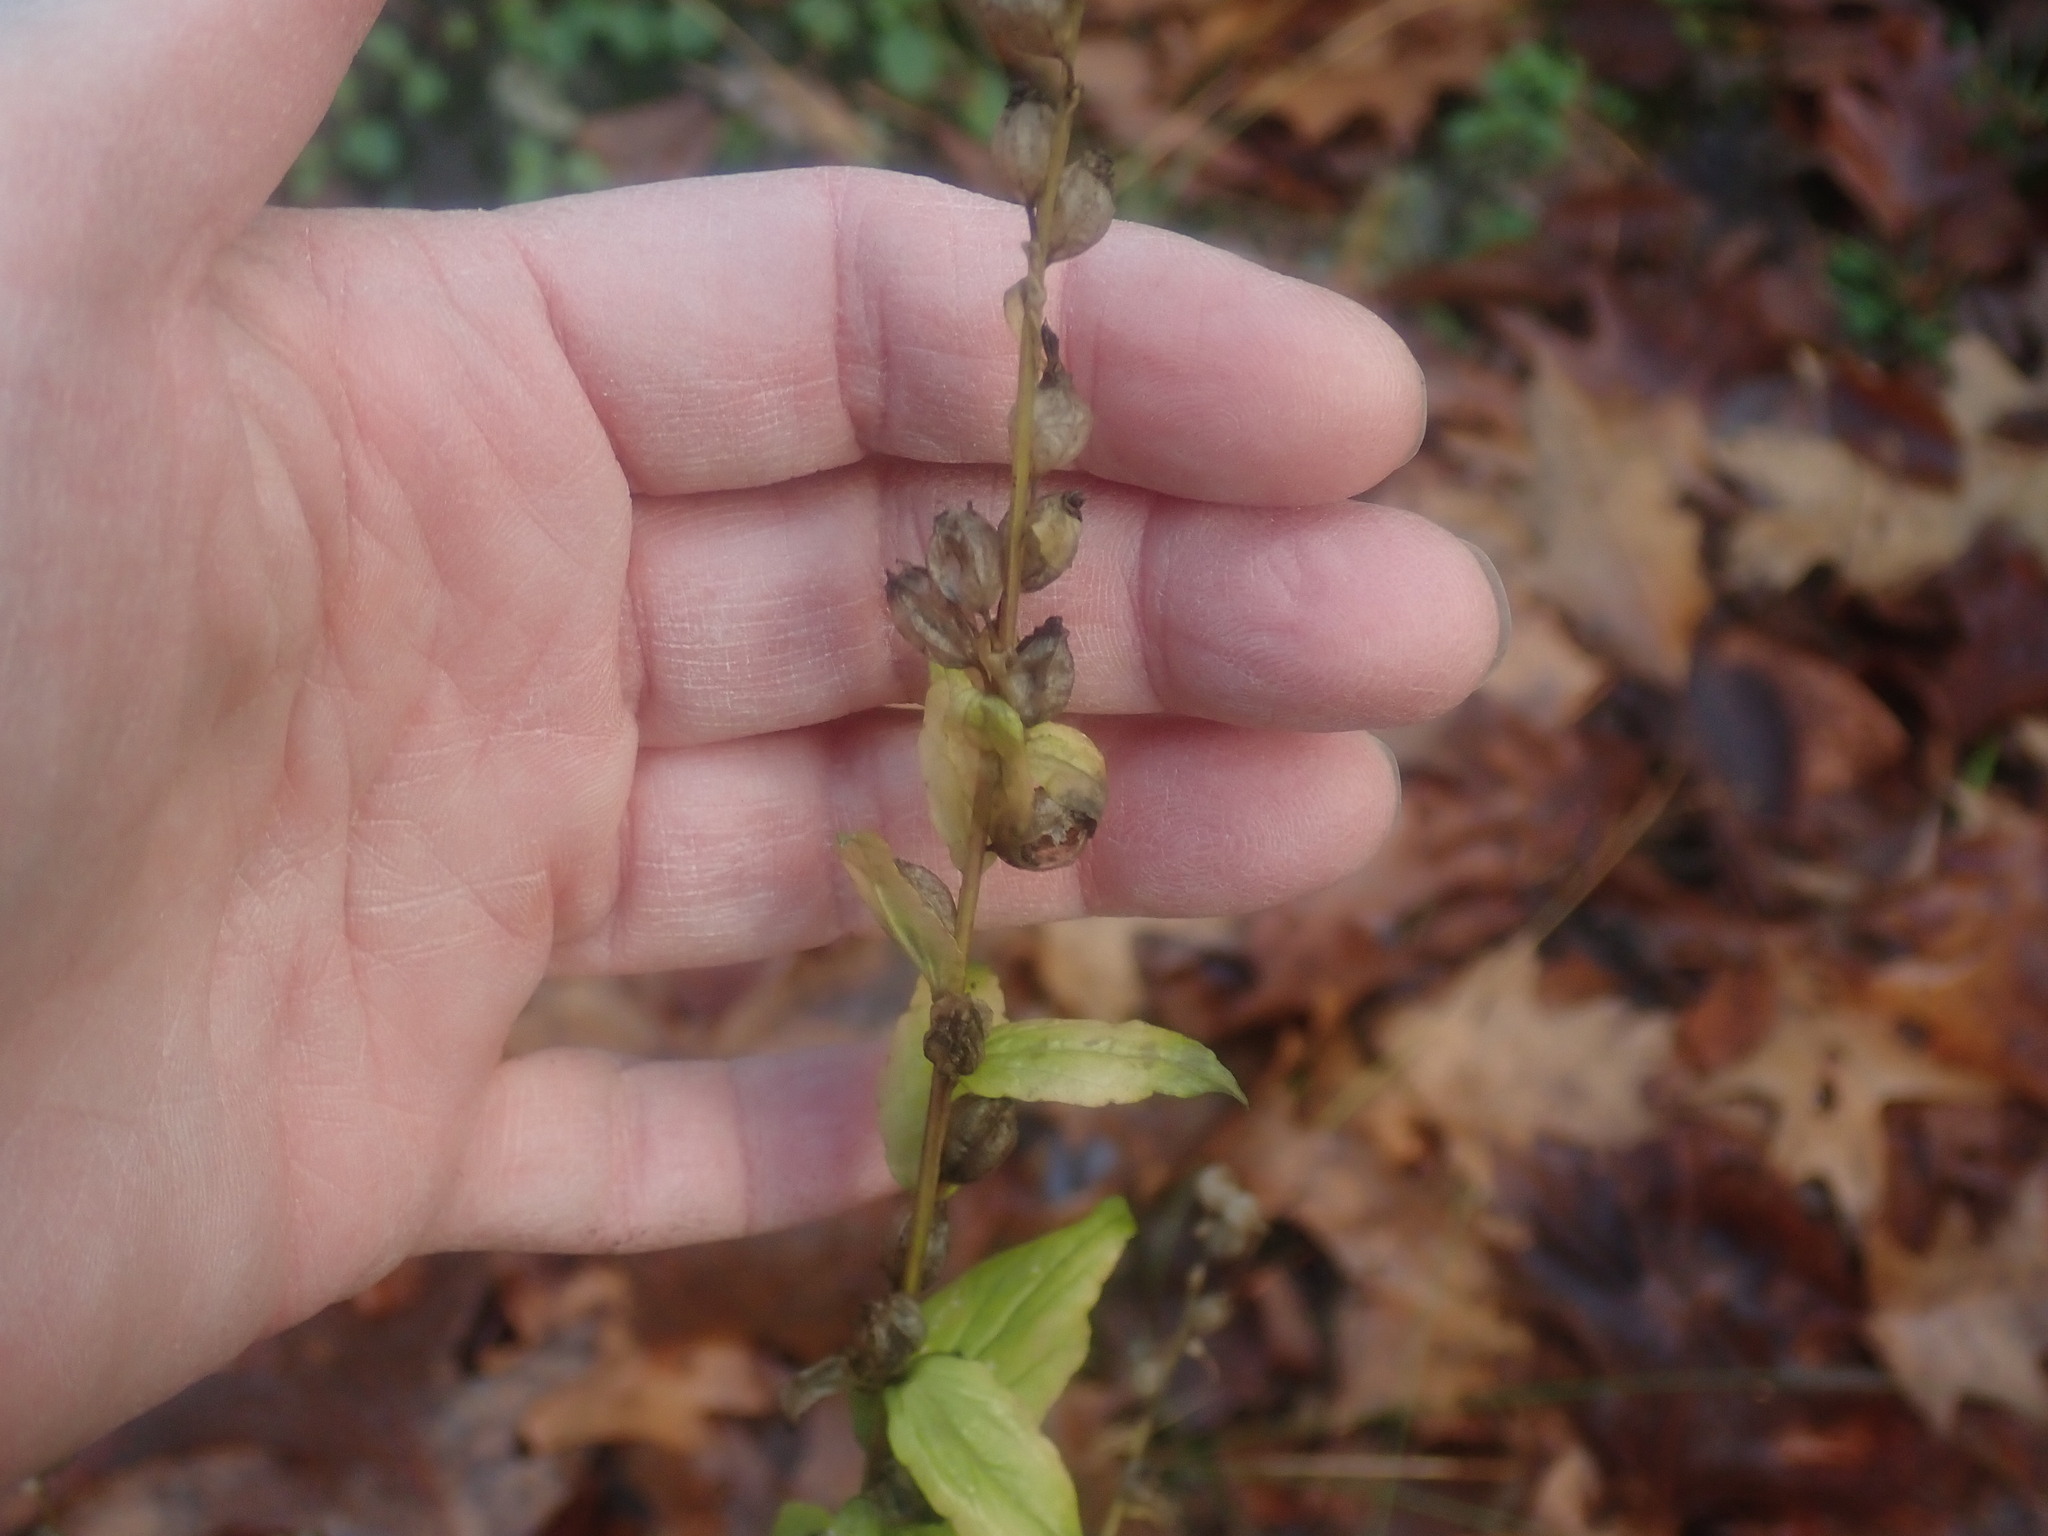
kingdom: Plantae
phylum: Tracheophyta
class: Magnoliopsida
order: Asterales
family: Campanulaceae
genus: Lobelia
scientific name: Lobelia inflata
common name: Indian tobacco
